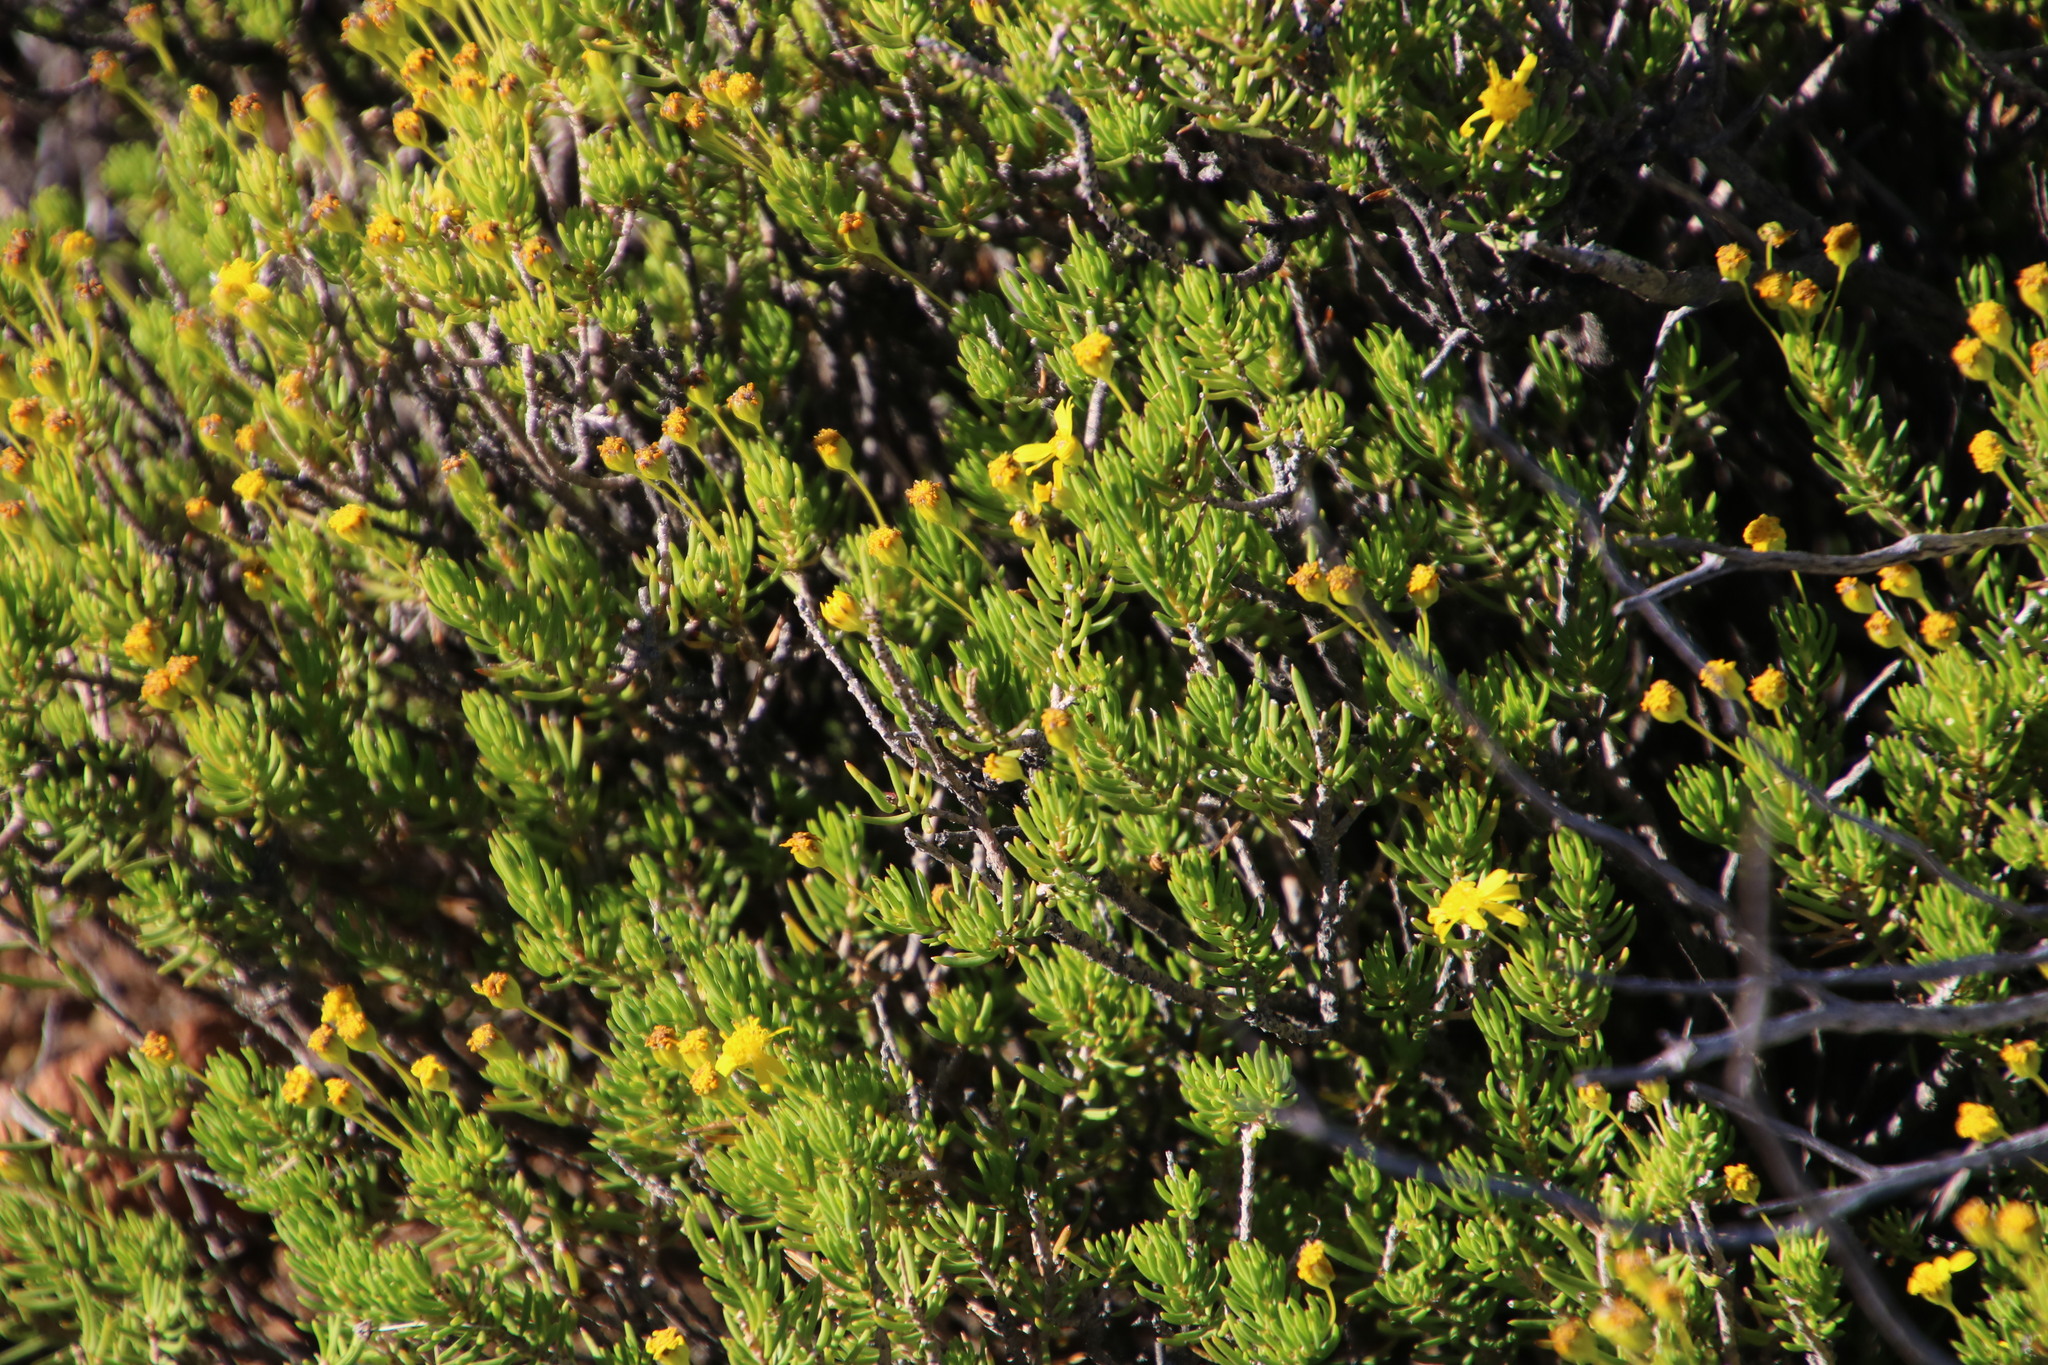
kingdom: Plantae
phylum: Tracheophyta
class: Magnoliopsida
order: Asterales
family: Asteraceae
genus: Euryops
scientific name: Euryops nodosus
